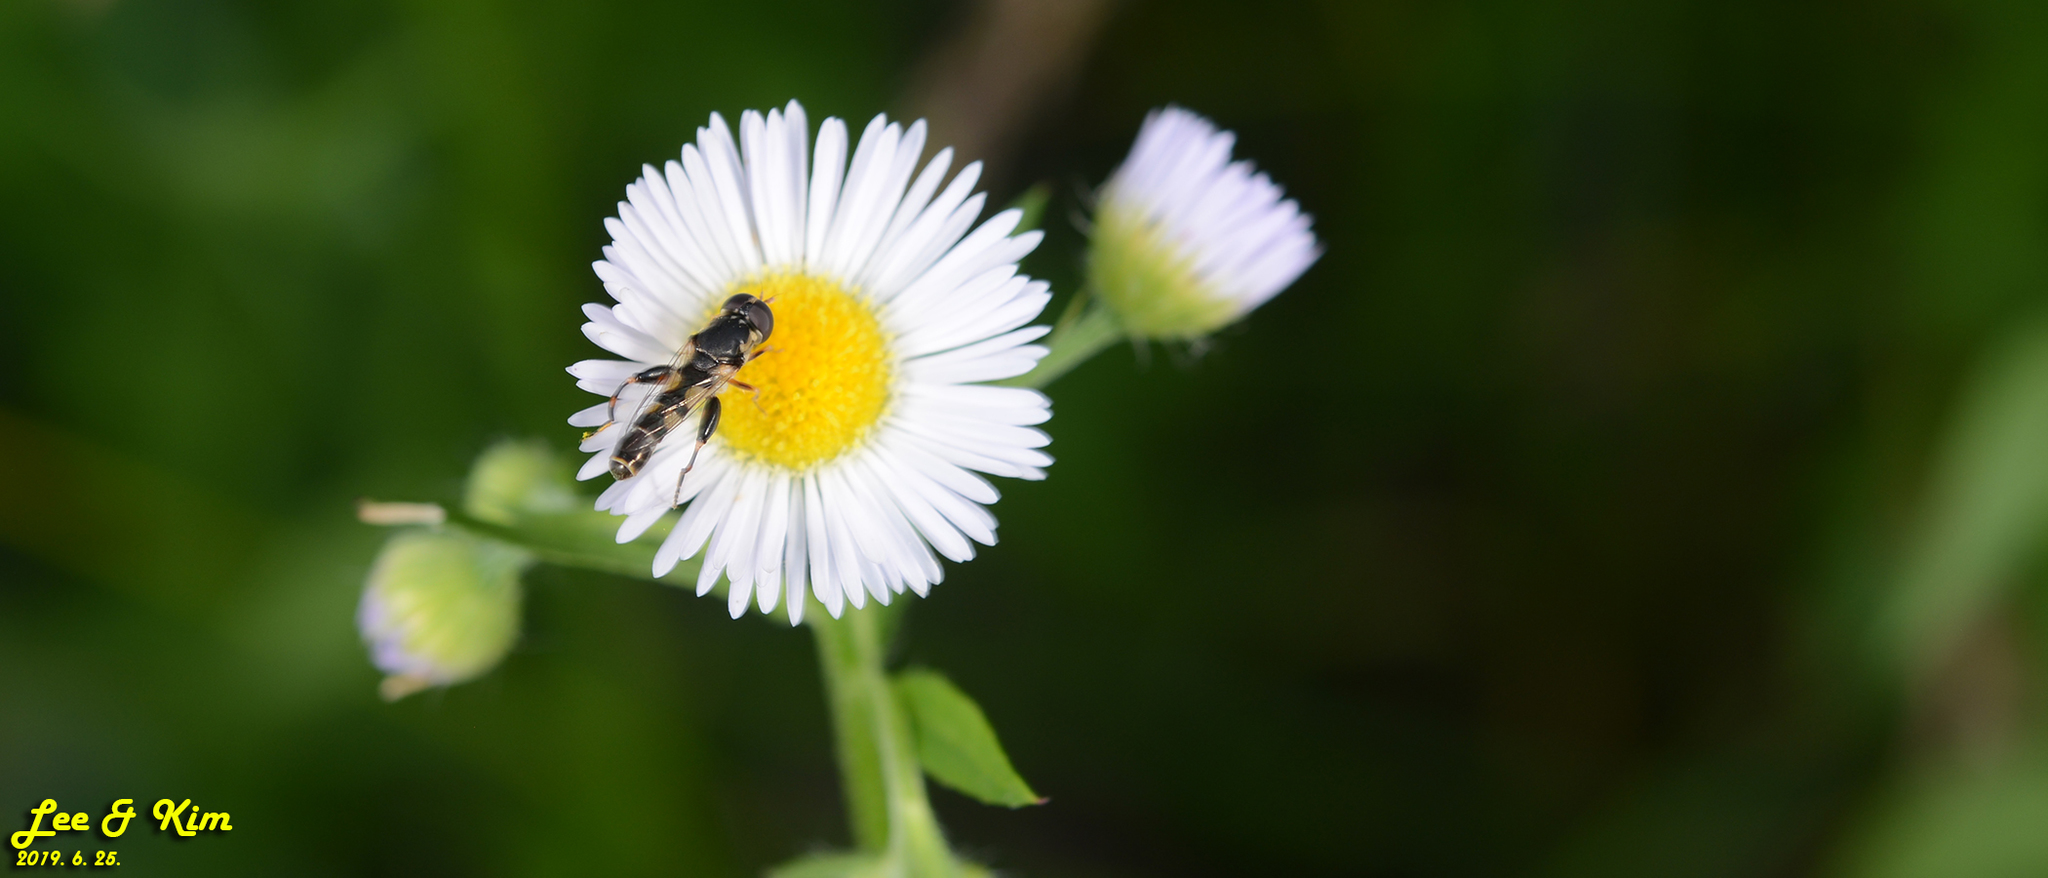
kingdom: Animalia
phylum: Arthropoda
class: Insecta
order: Diptera
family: Syrphidae
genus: Syritta
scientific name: Syritta pipiens
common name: Hover fly
